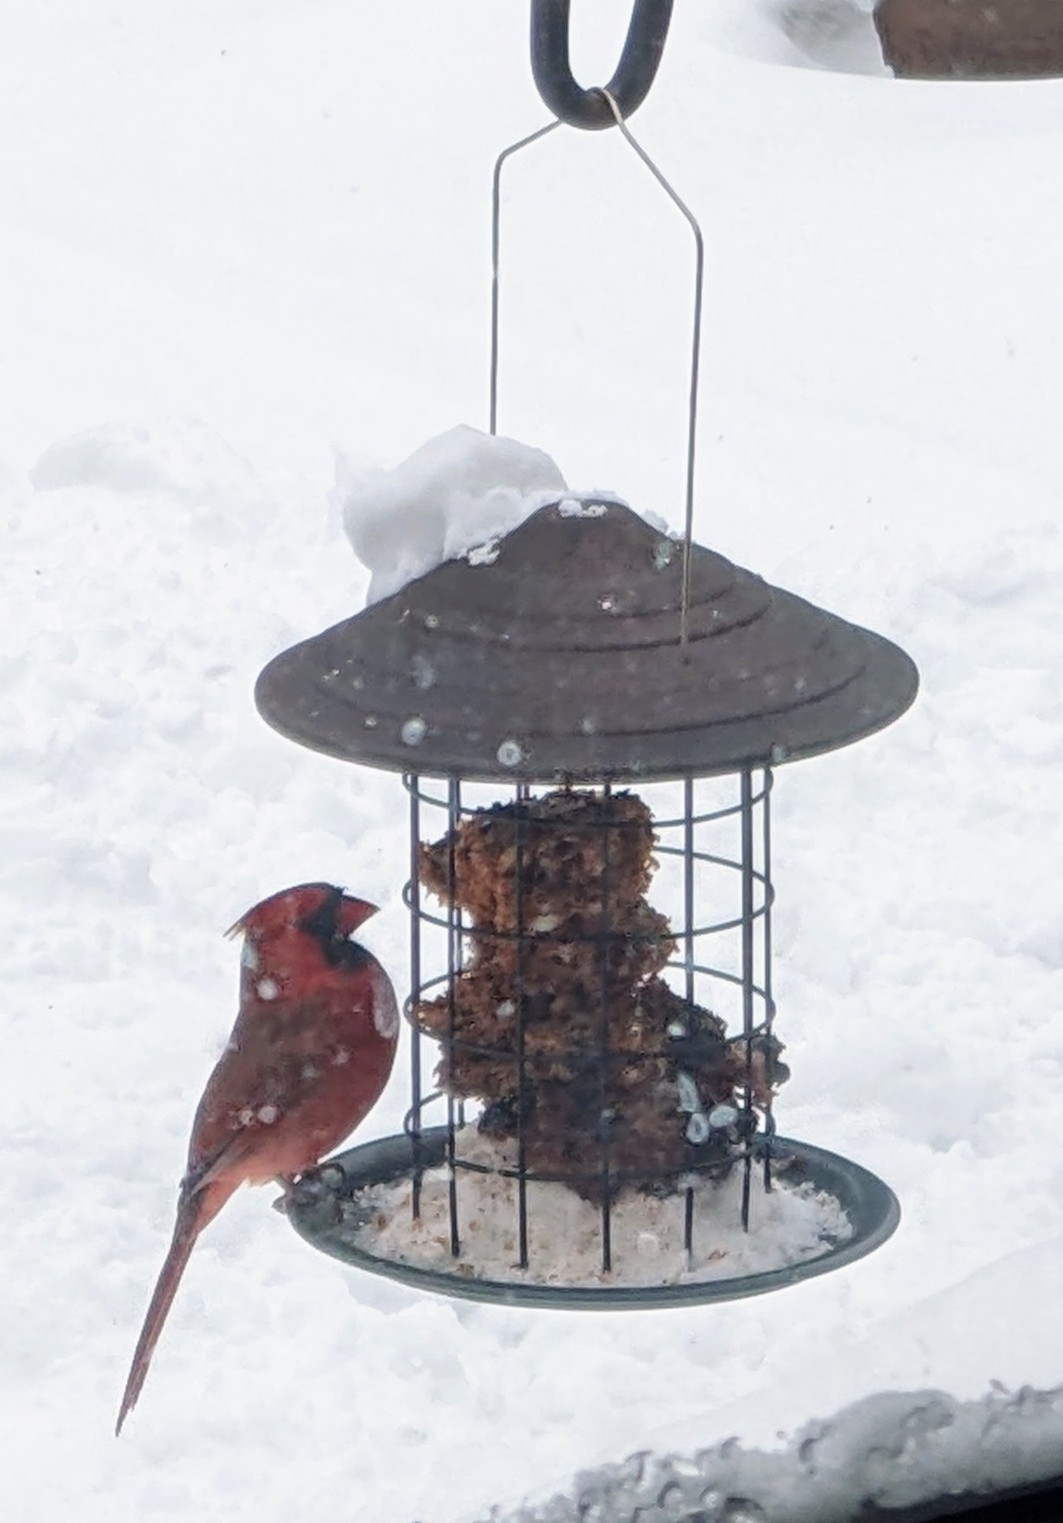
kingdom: Animalia
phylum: Chordata
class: Aves
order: Passeriformes
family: Cardinalidae
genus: Cardinalis
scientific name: Cardinalis cardinalis
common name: Northern cardinal
